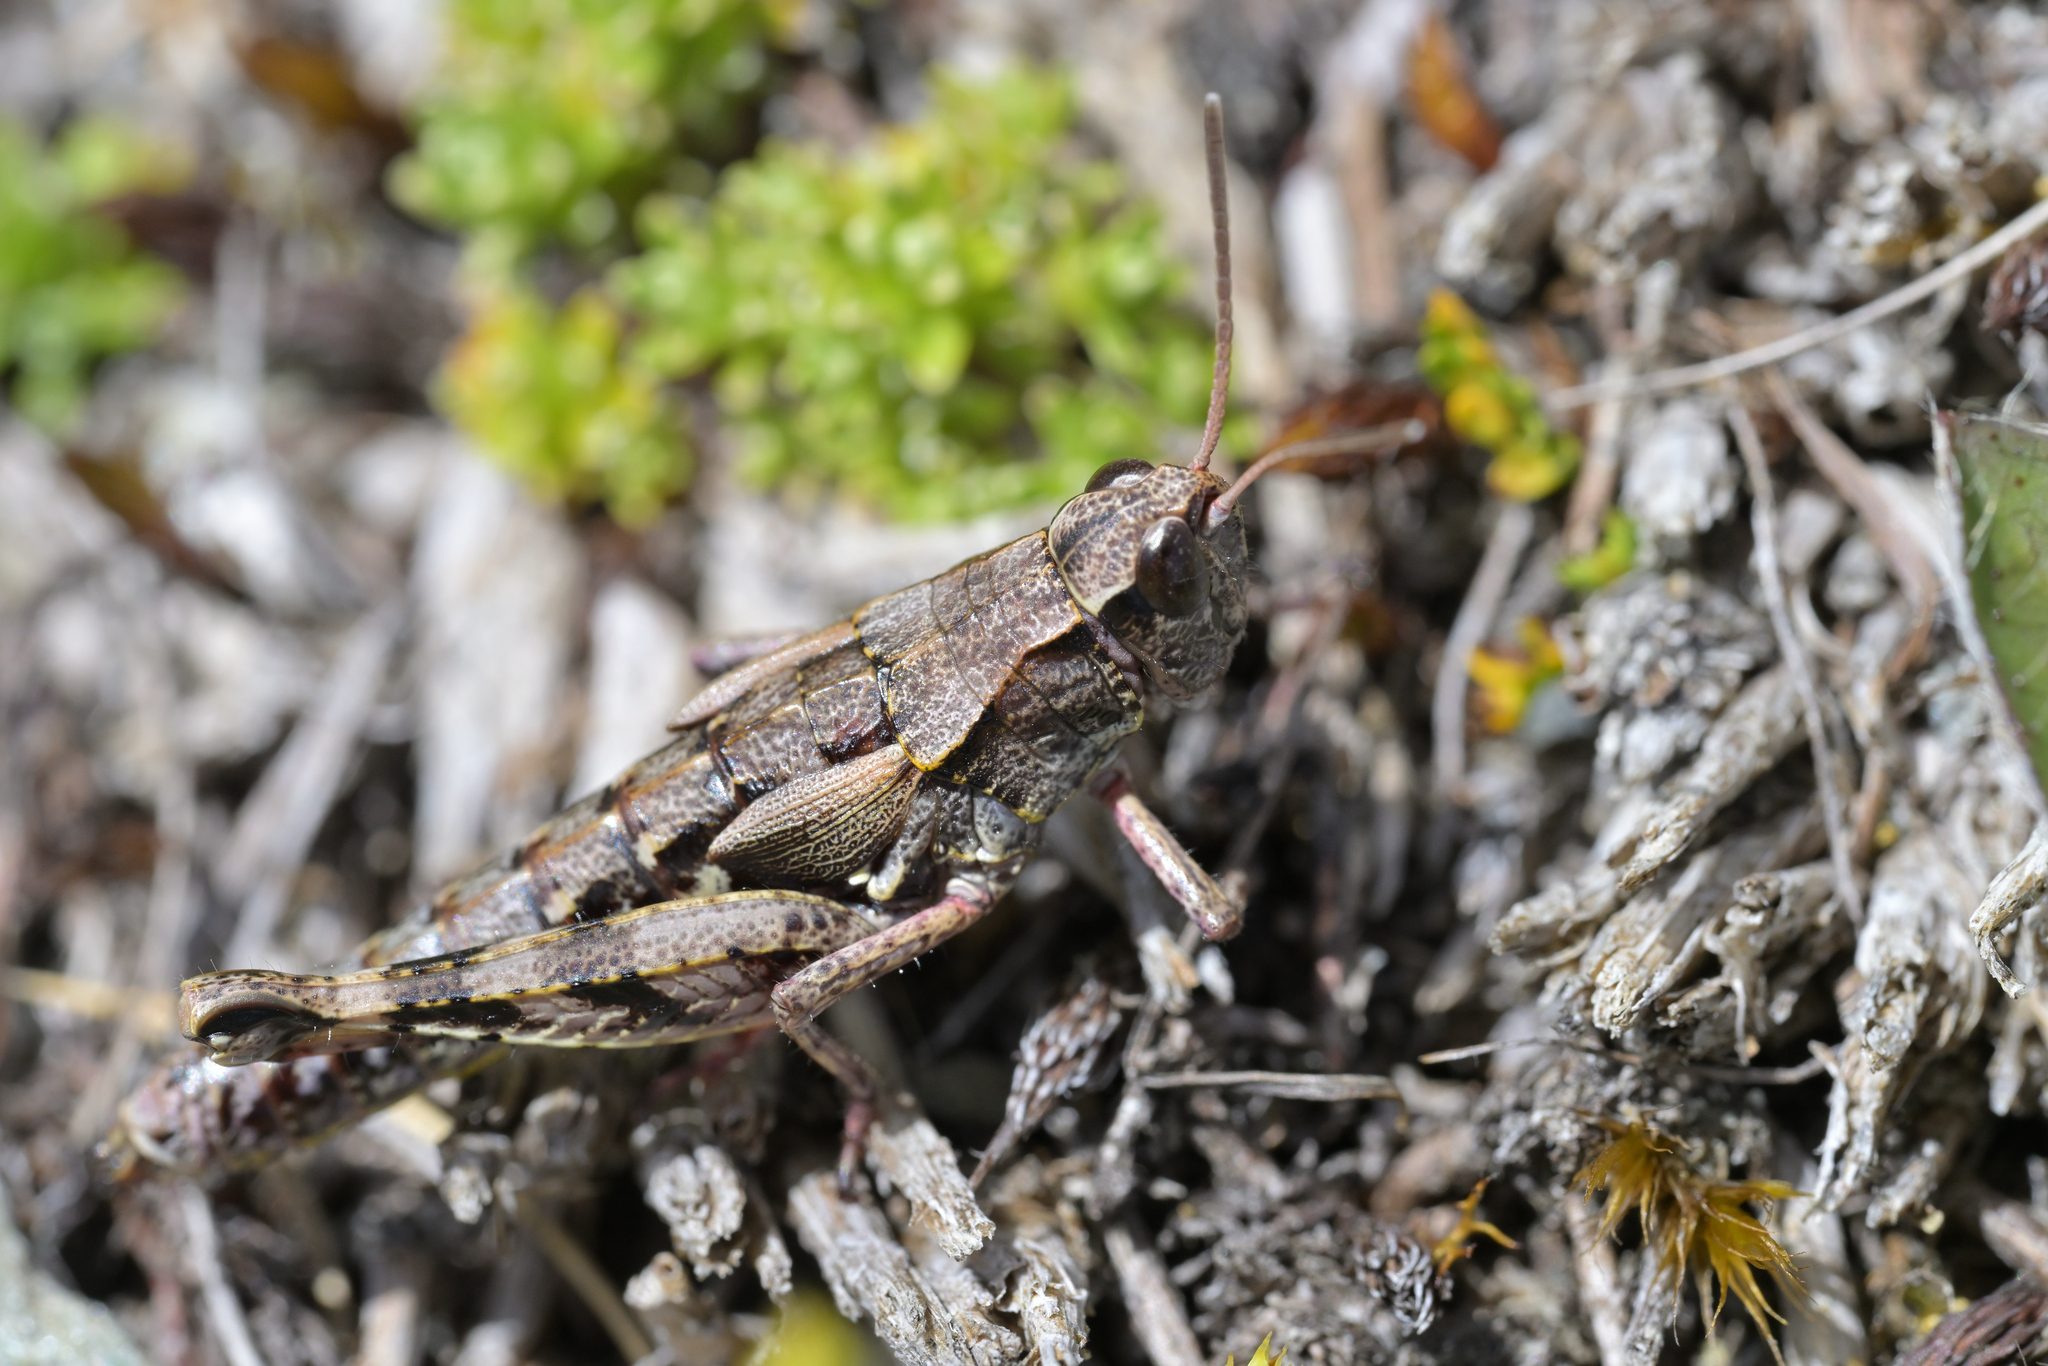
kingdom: Animalia
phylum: Arthropoda
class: Insecta
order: Orthoptera
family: Acrididae
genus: Sigaus
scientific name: Sigaus australis
